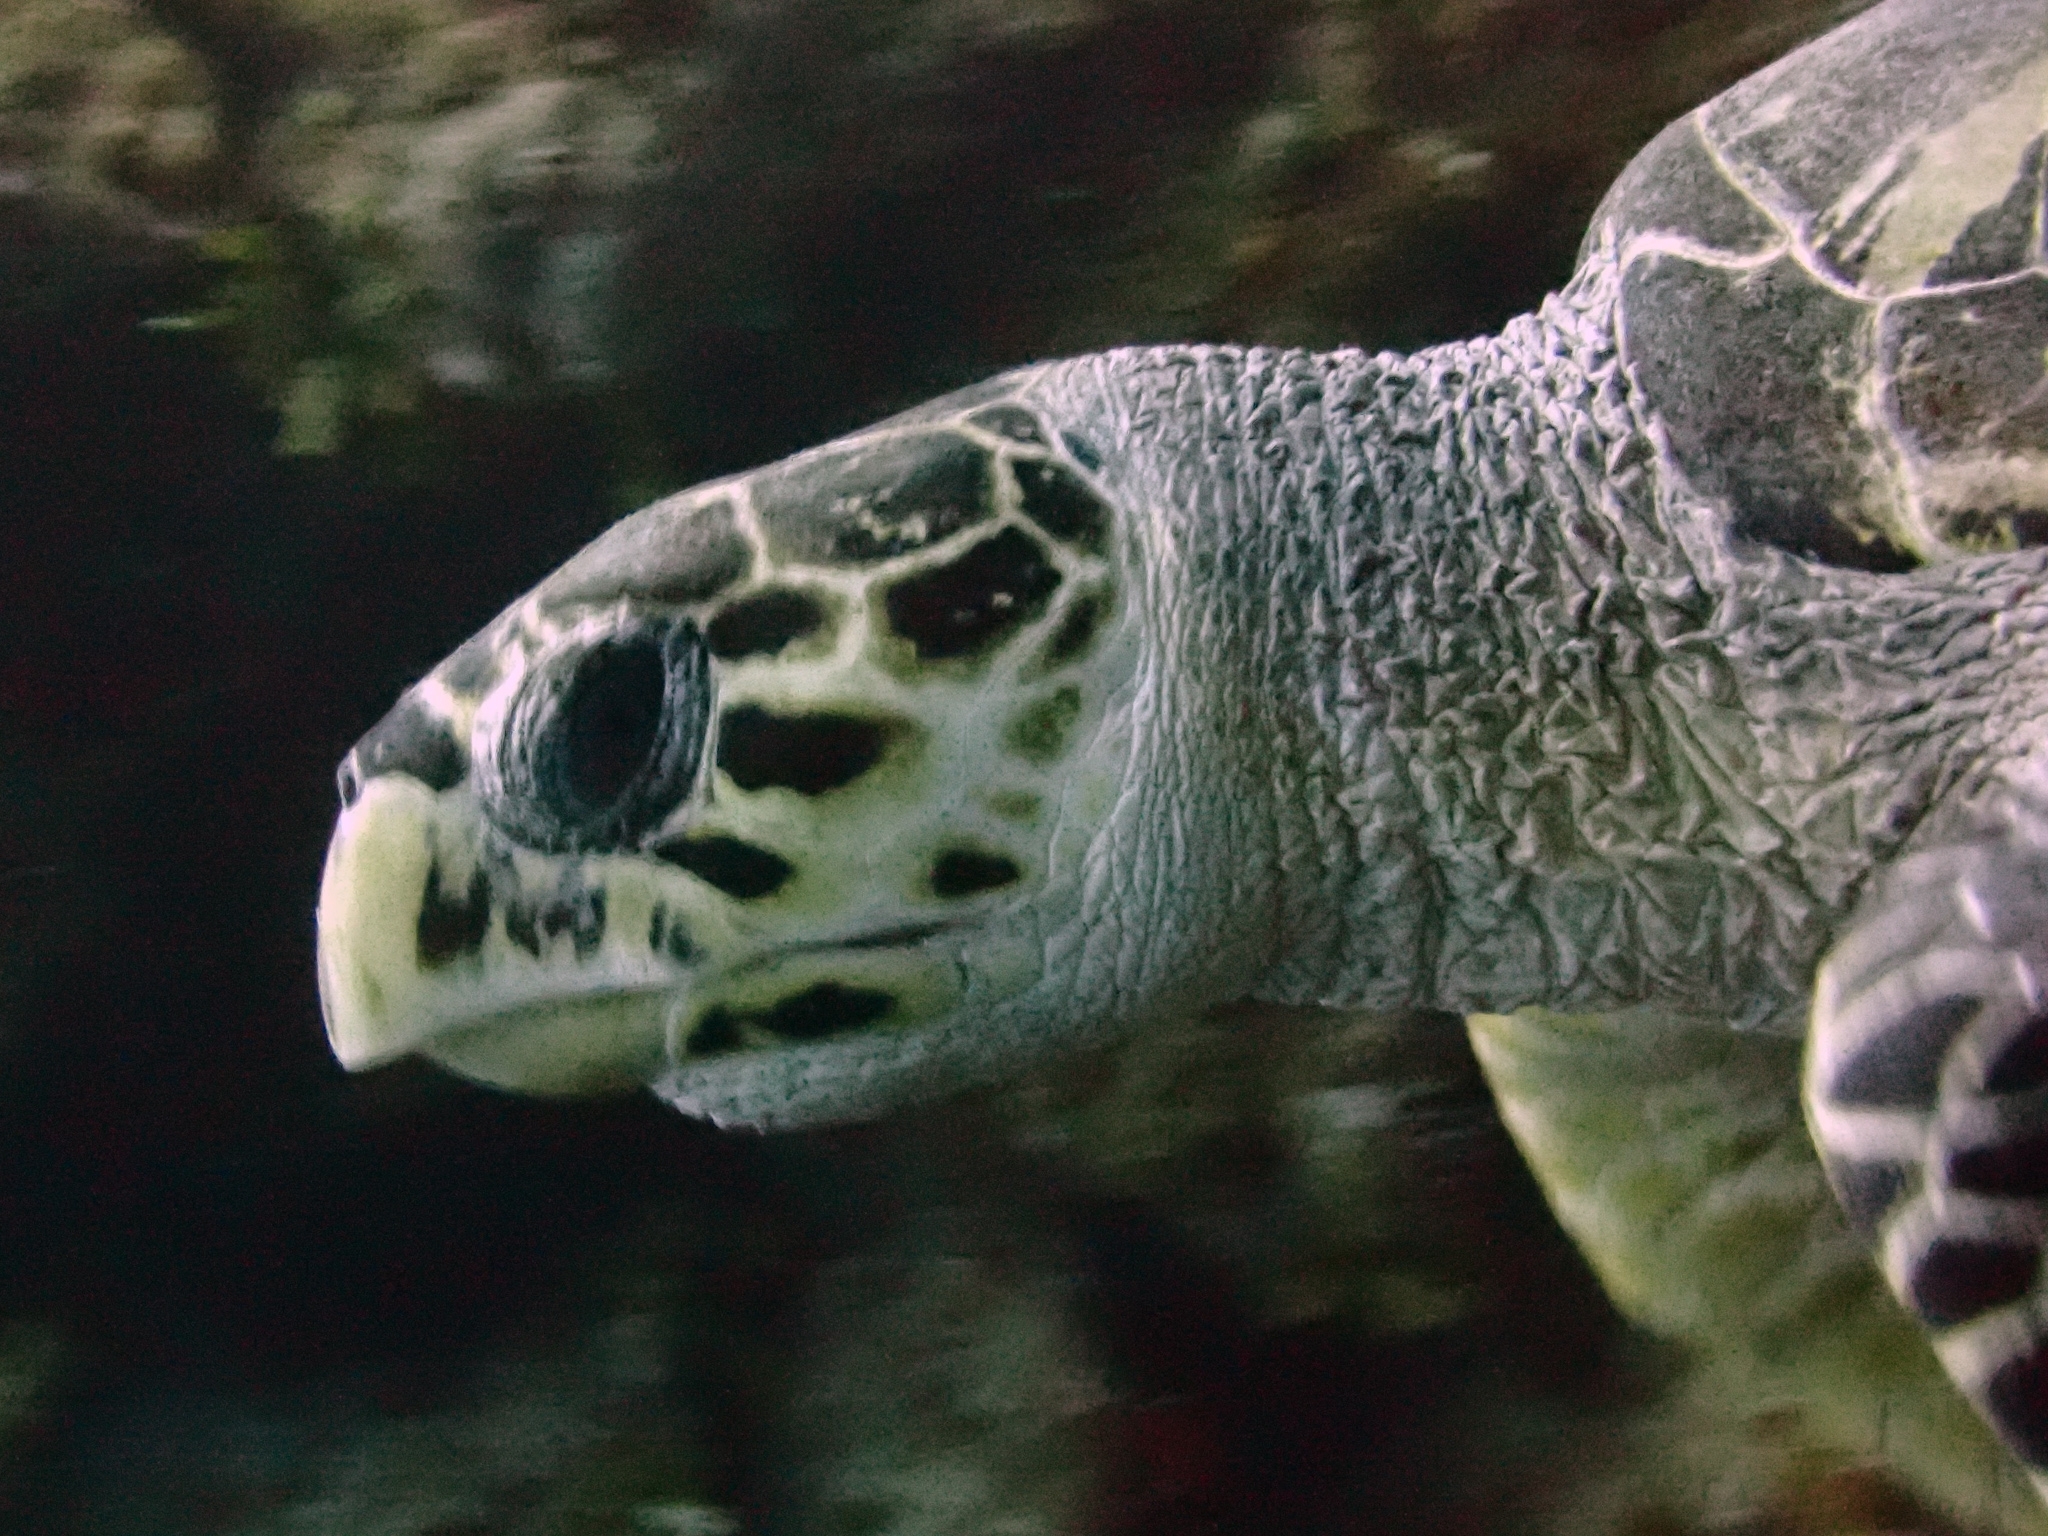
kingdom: Animalia
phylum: Chordata
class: Testudines
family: Cheloniidae
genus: Eretmochelys
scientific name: Eretmochelys imbricata
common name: Hawksbill turtle
